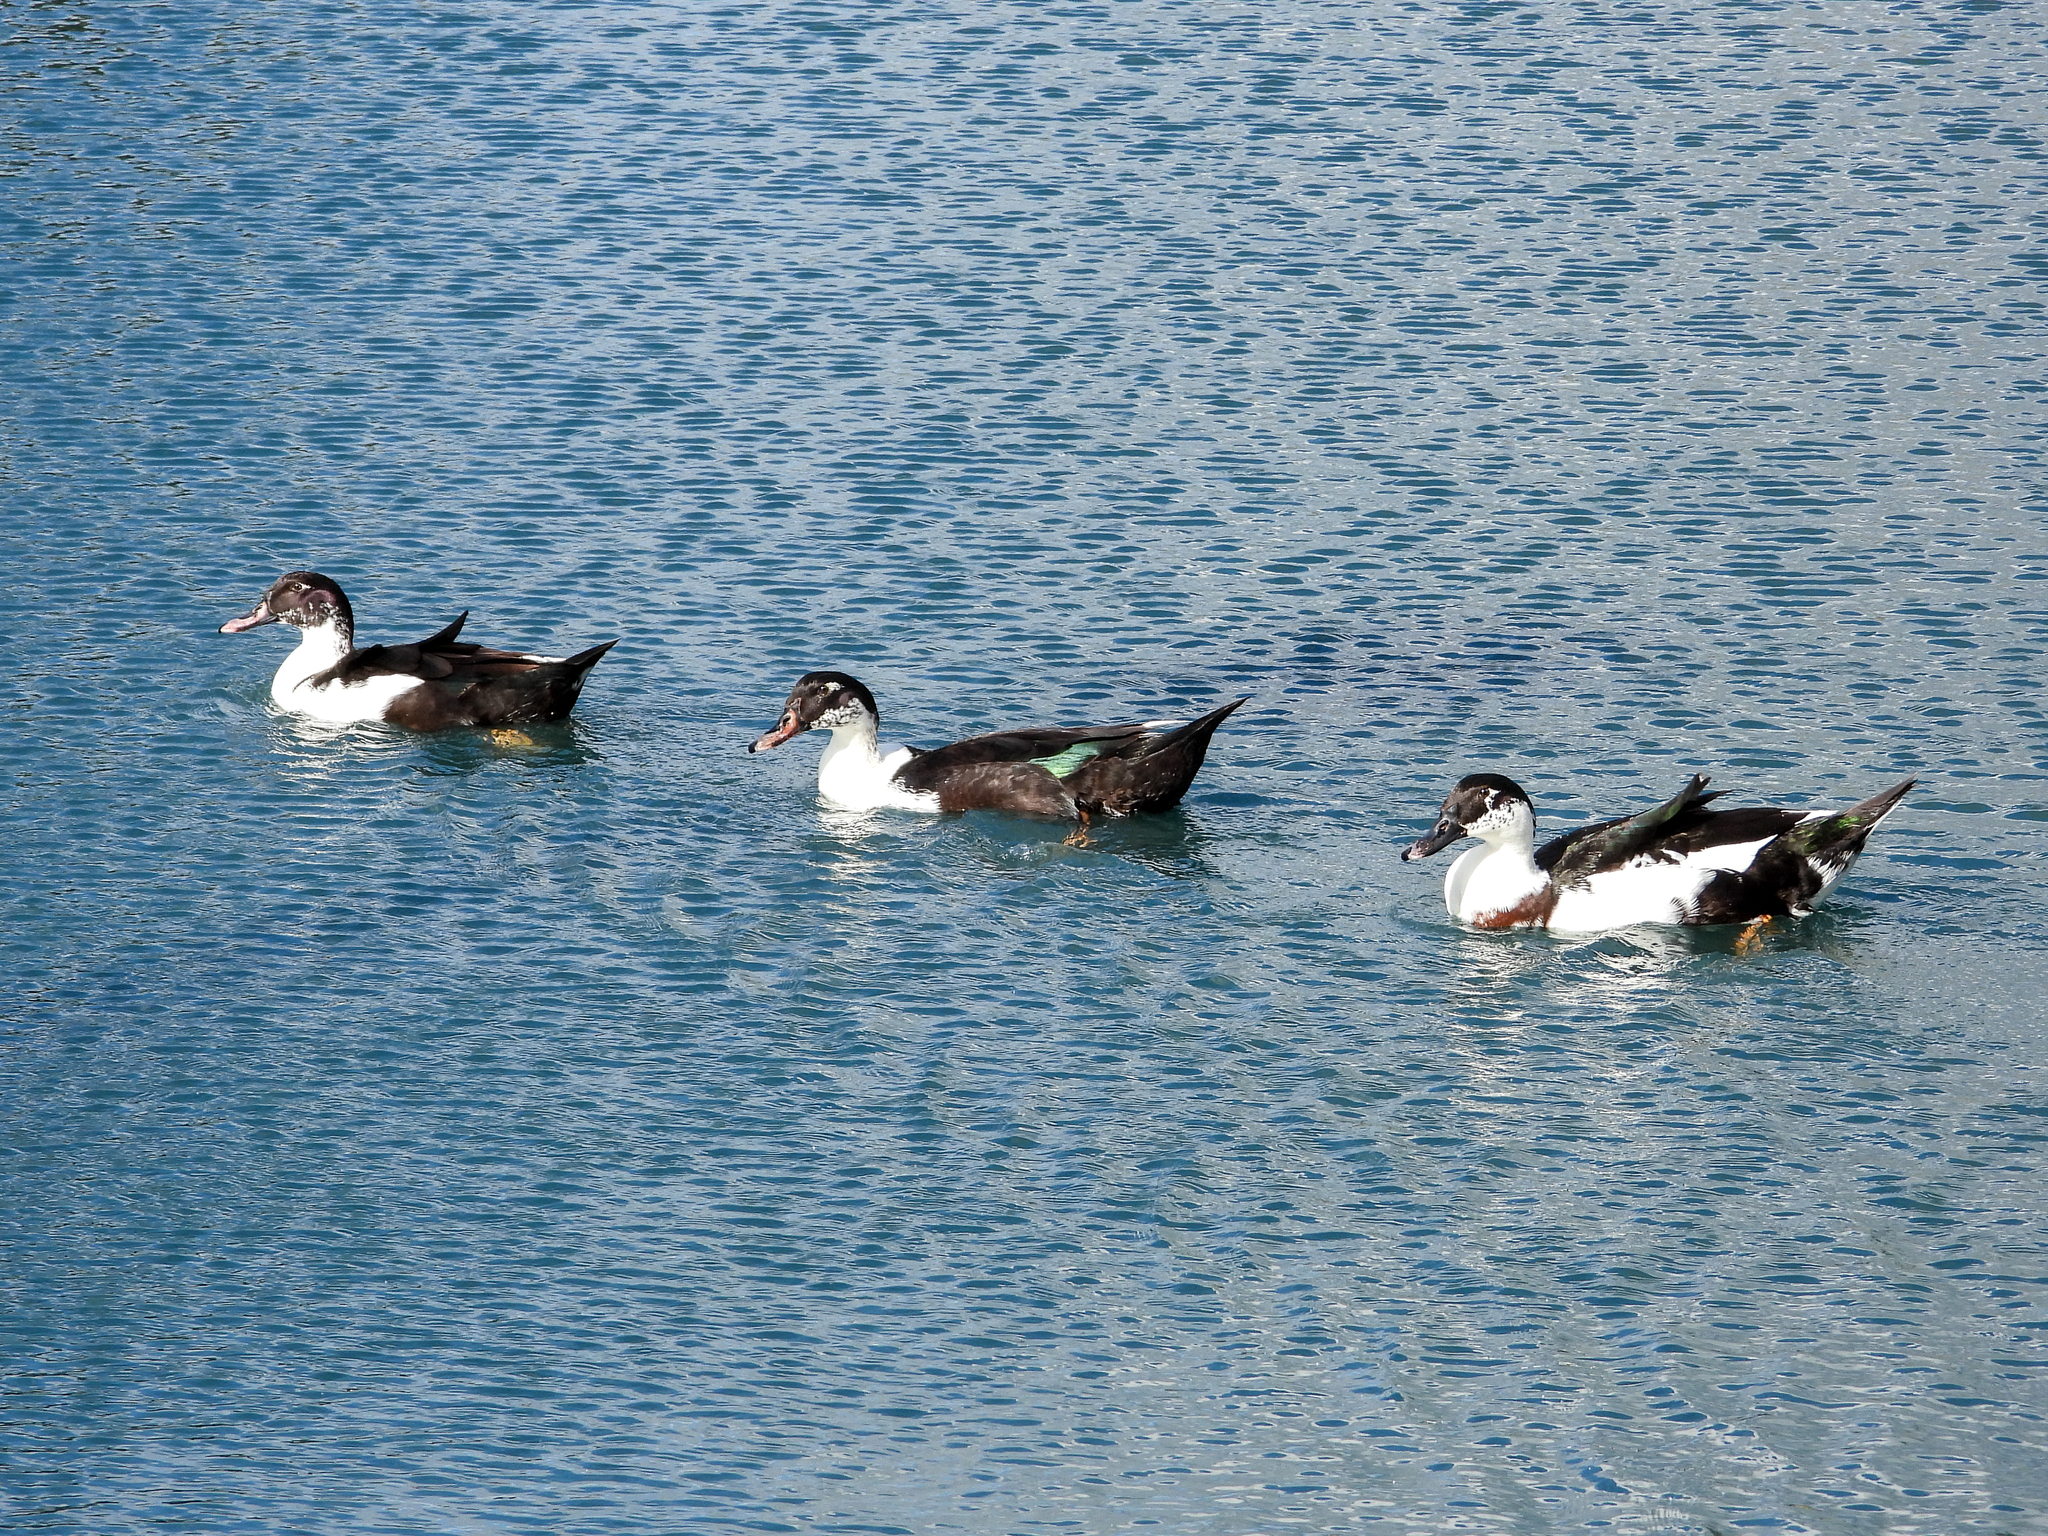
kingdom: Animalia
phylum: Chordata
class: Aves
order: Anseriformes
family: Anatidae
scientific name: Anatidae
